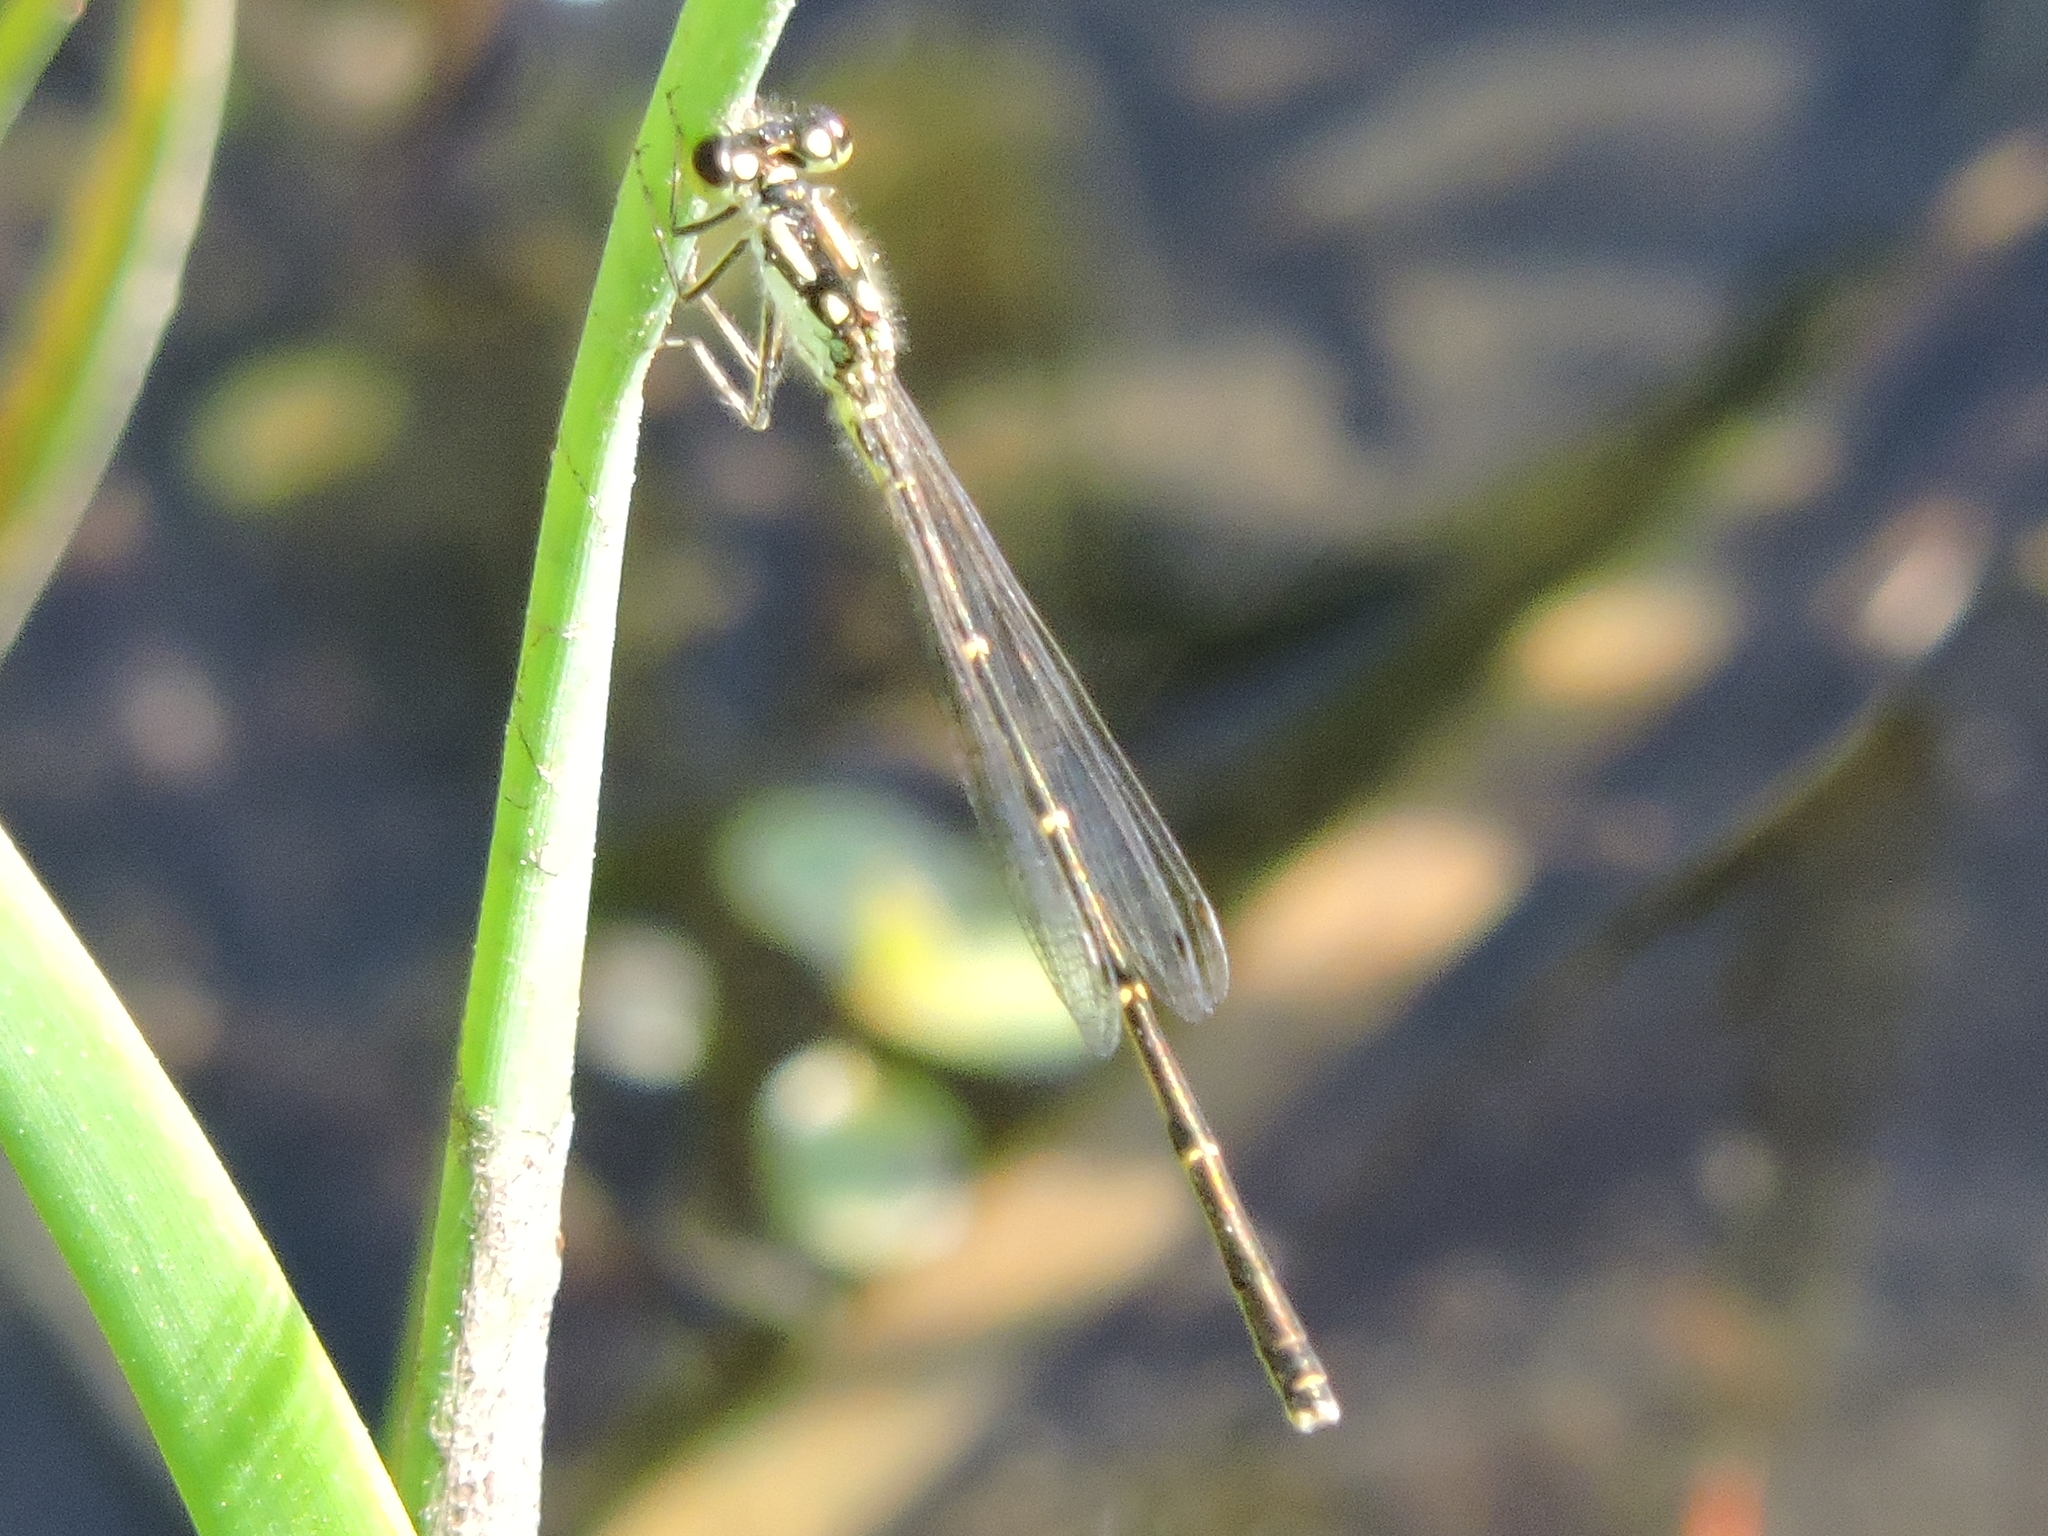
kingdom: Animalia
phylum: Arthropoda
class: Insecta
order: Odonata
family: Coenagrionidae
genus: Ischnura
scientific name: Ischnura posita
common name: Fragile forktail
